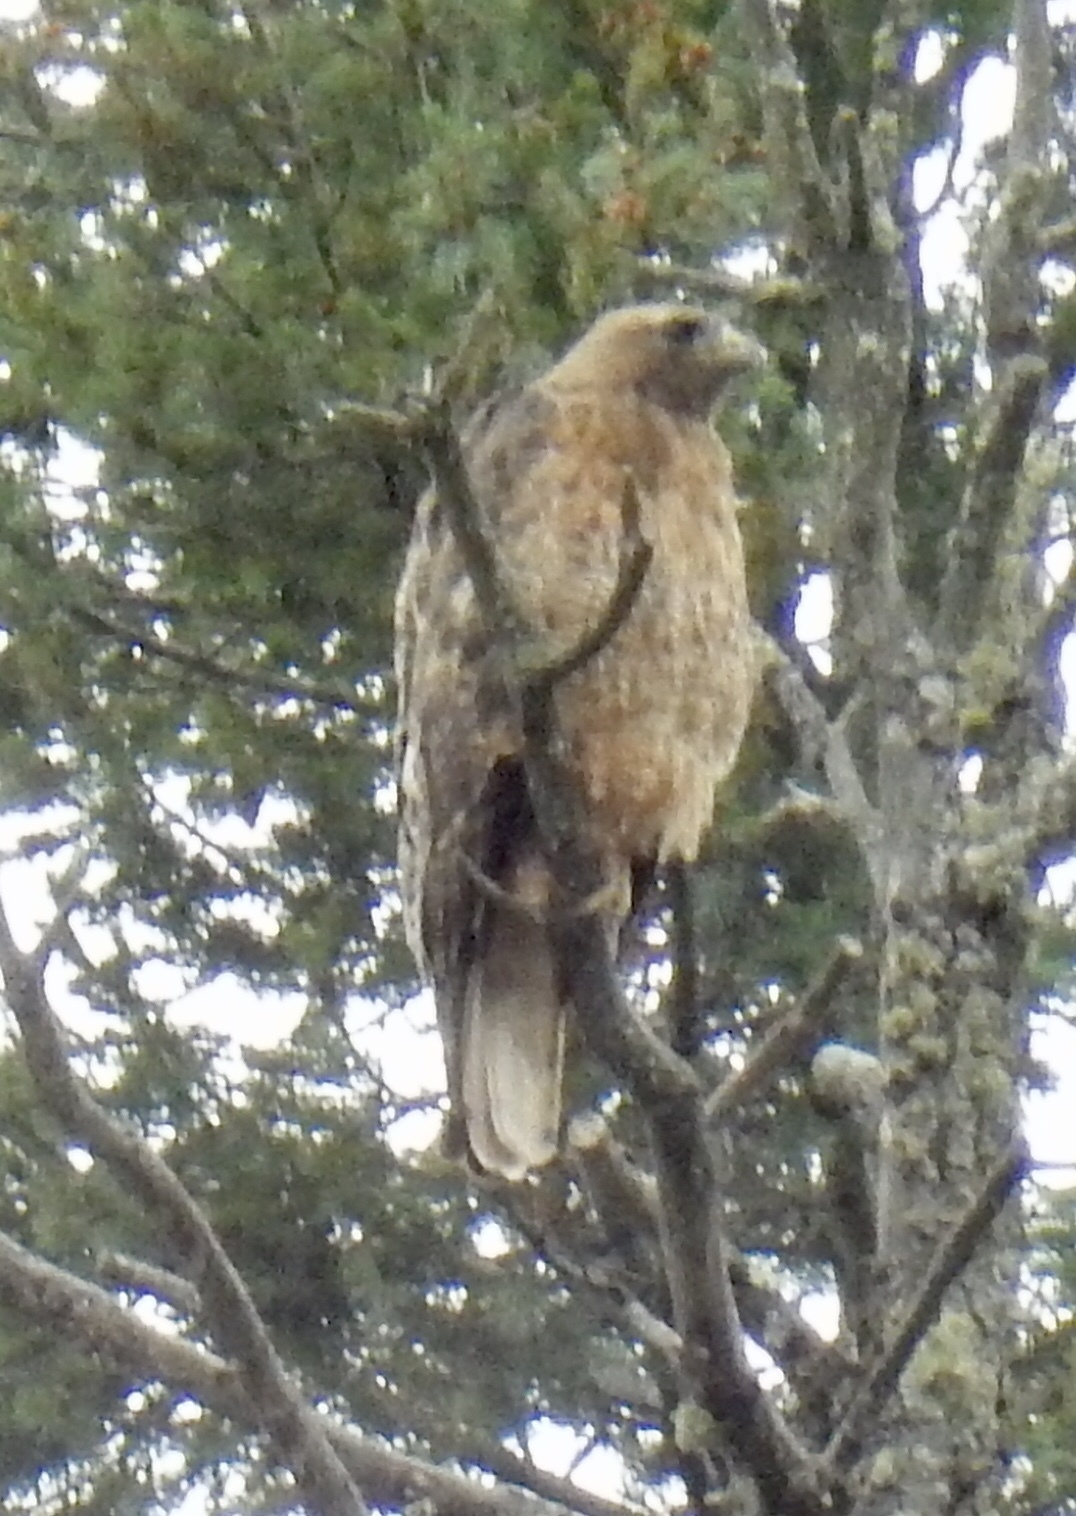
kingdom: Animalia
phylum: Chordata
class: Aves
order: Accipitriformes
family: Accipitridae
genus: Buteo
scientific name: Buteo jamaicensis
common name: Red-tailed hawk
